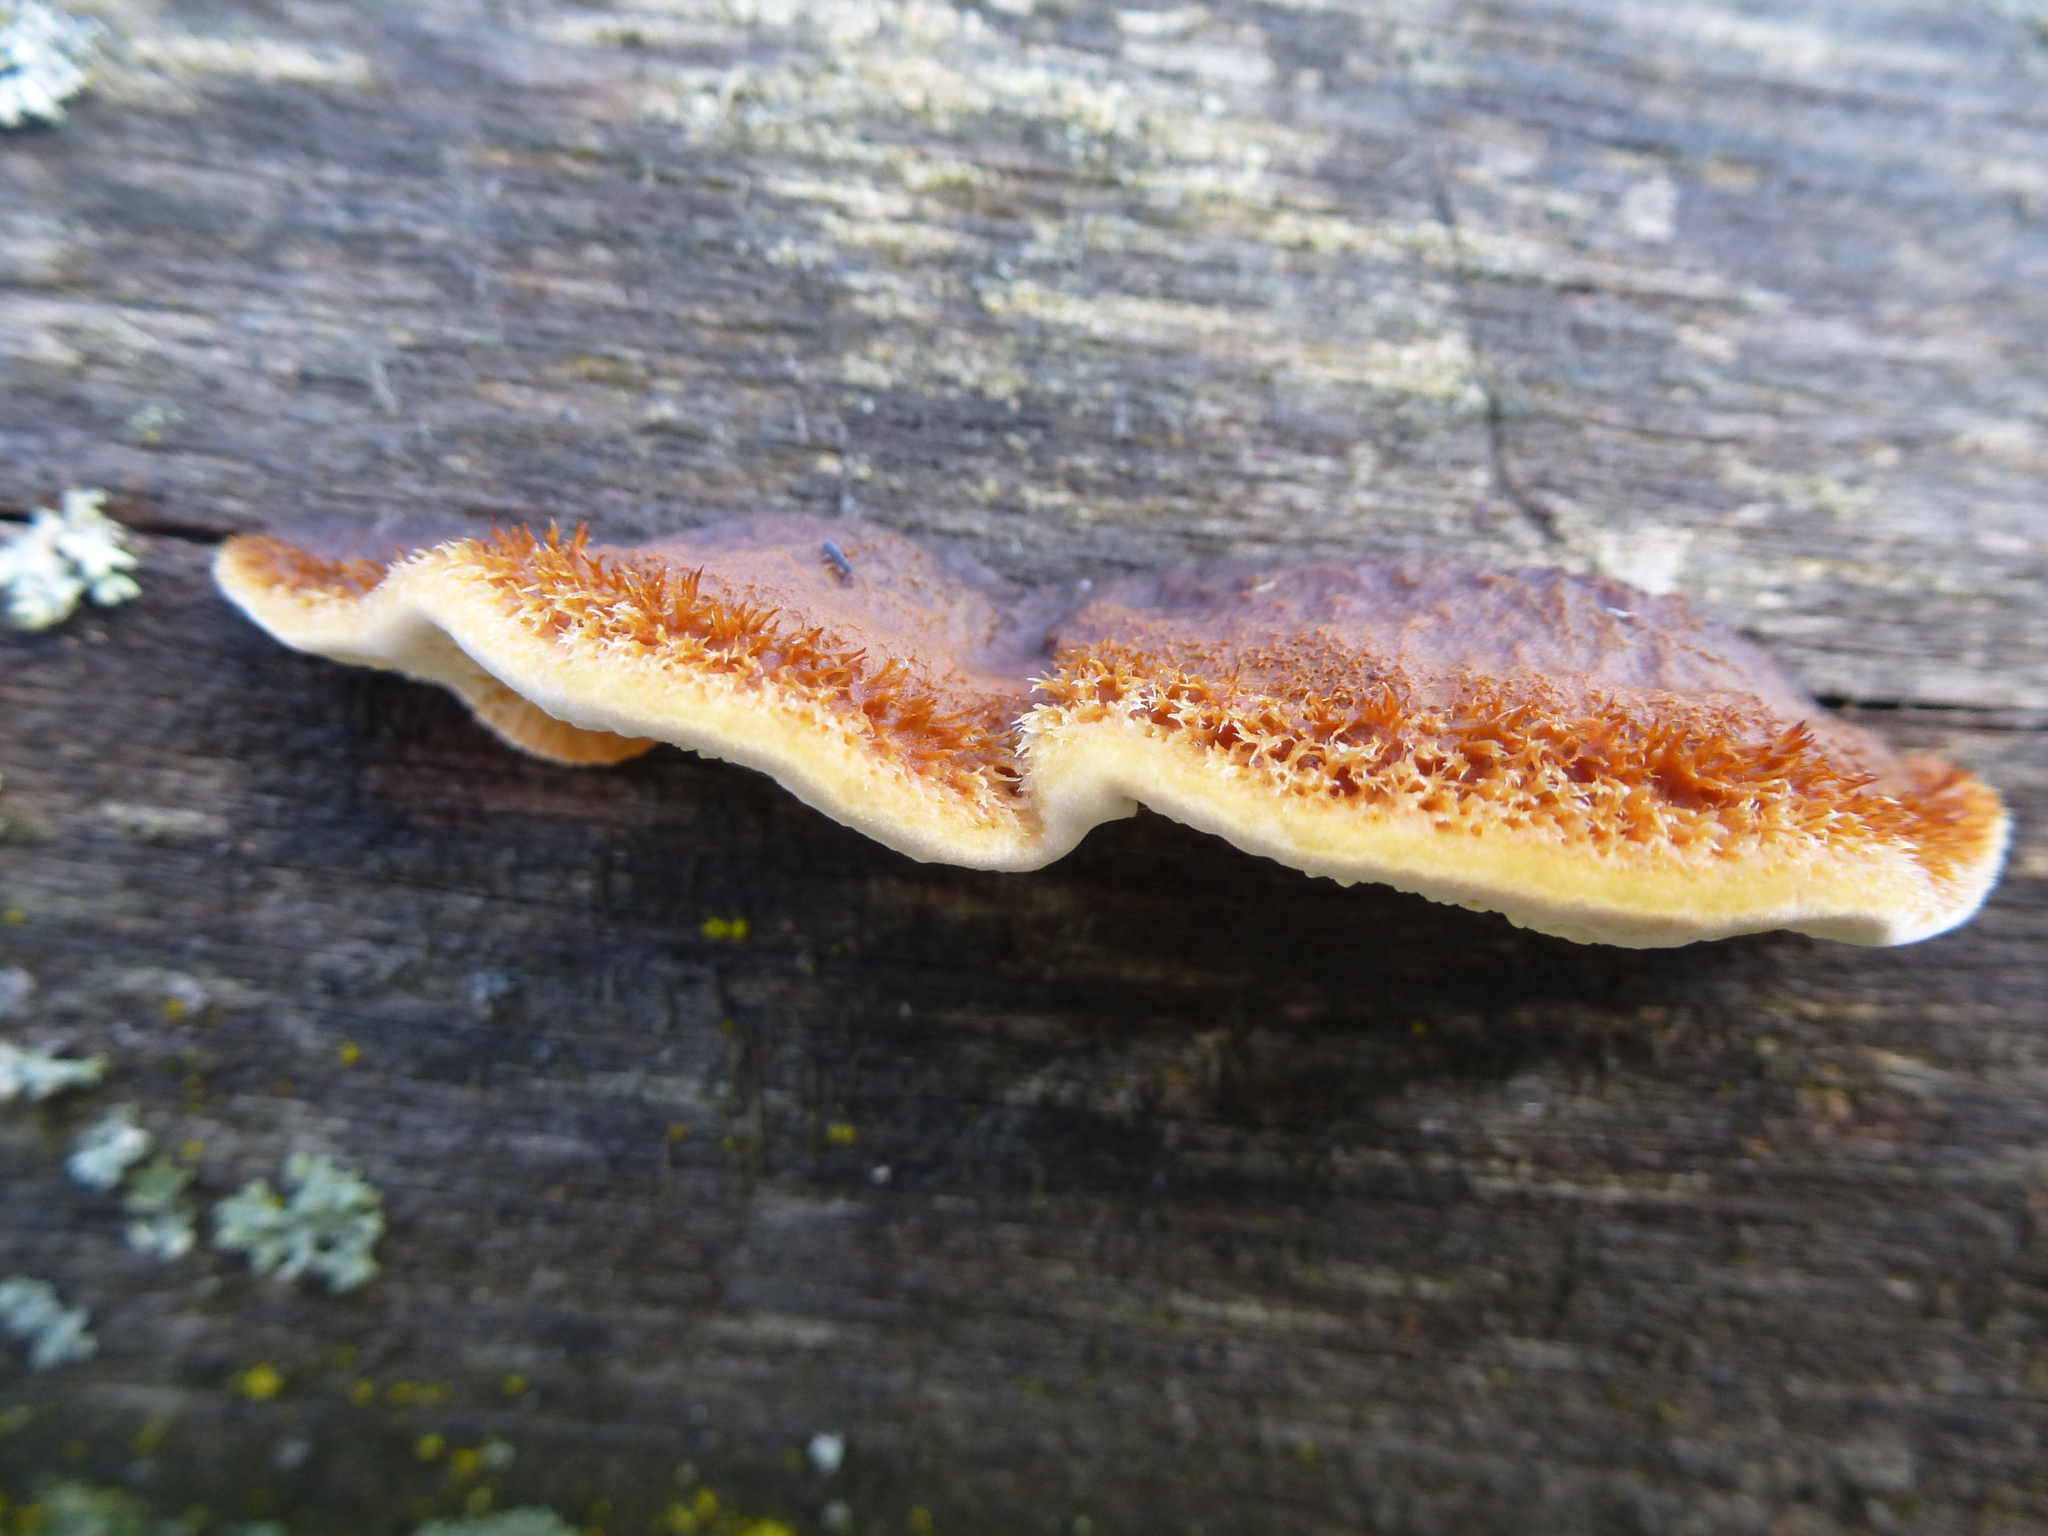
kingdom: Fungi
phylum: Basidiomycota
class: Agaricomycetes
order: Gloeophyllales
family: Gloeophyllaceae
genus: Gloeophyllum
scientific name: Gloeophyllum sepiarium
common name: Conifer mazegill
